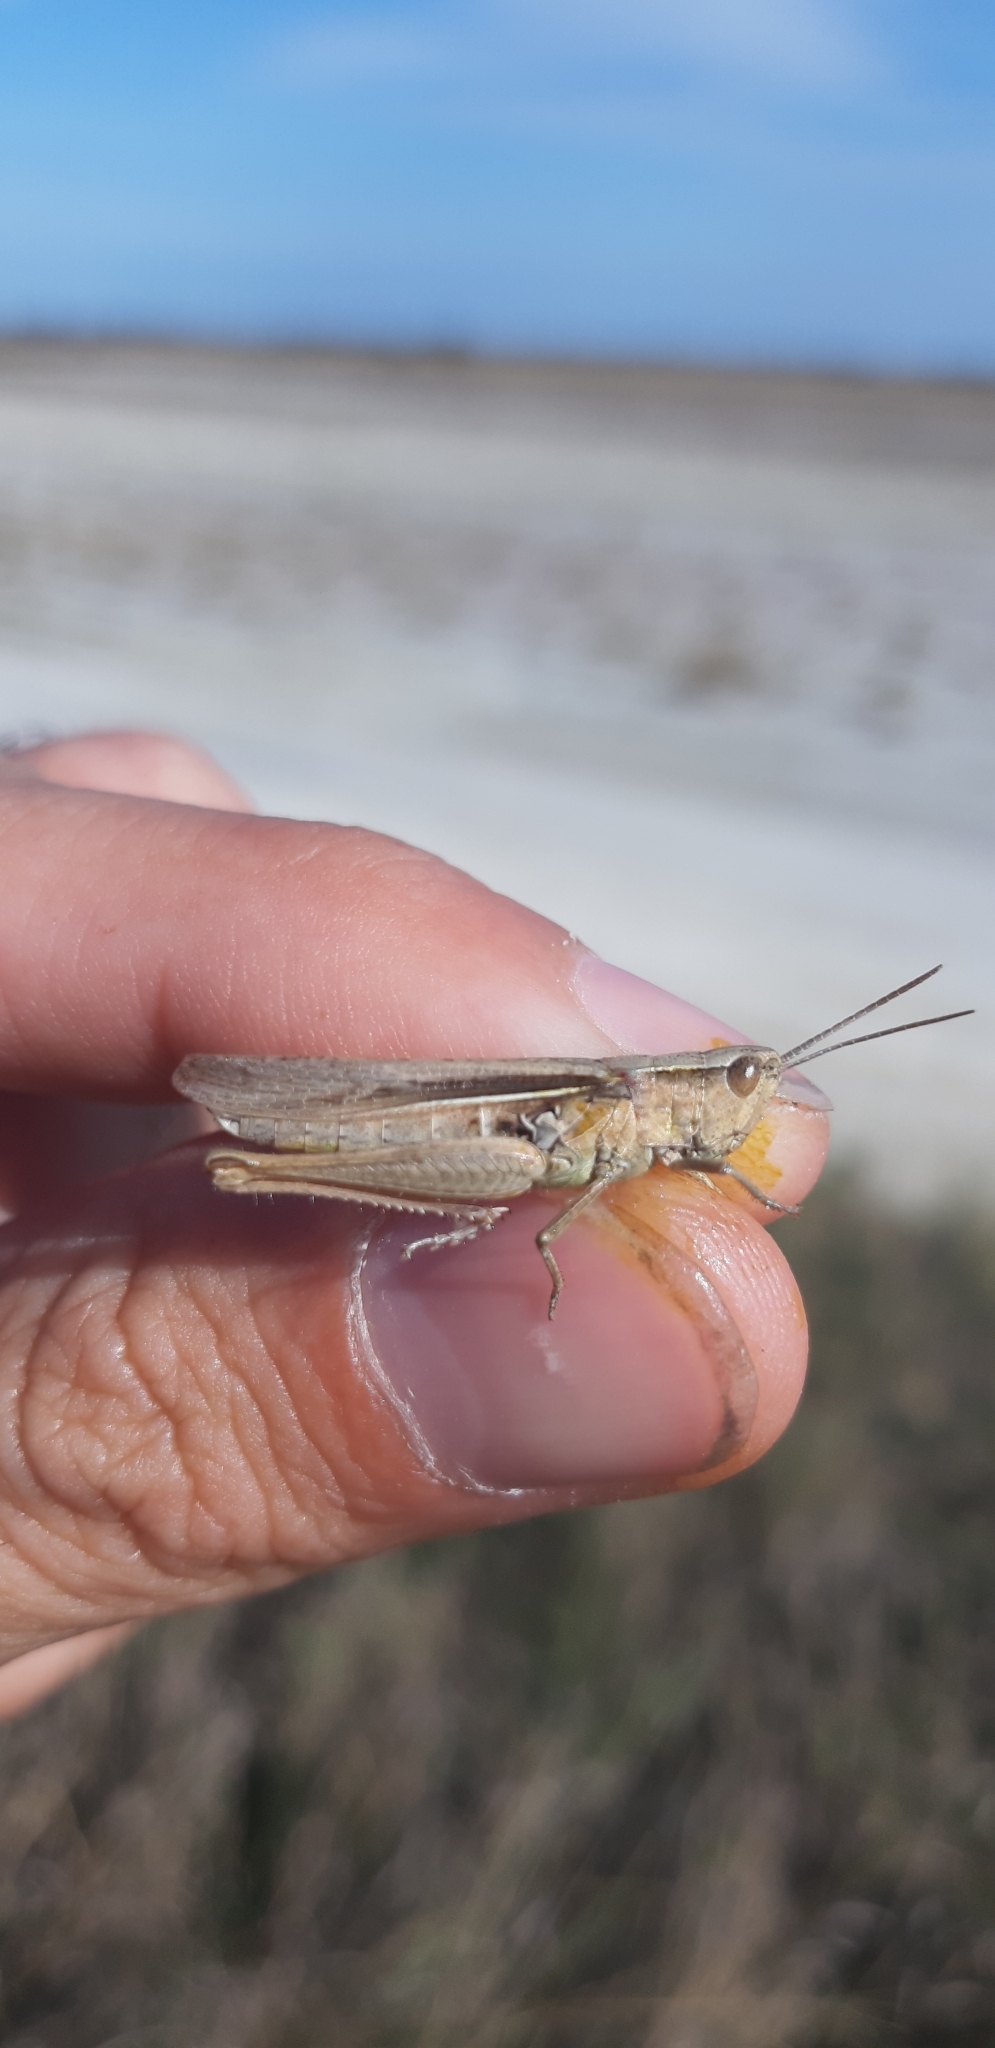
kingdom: Animalia
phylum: Arthropoda
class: Insecta
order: Orthoptera
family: Acrididae
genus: Chorthippus
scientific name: Chorthippus dichrous
